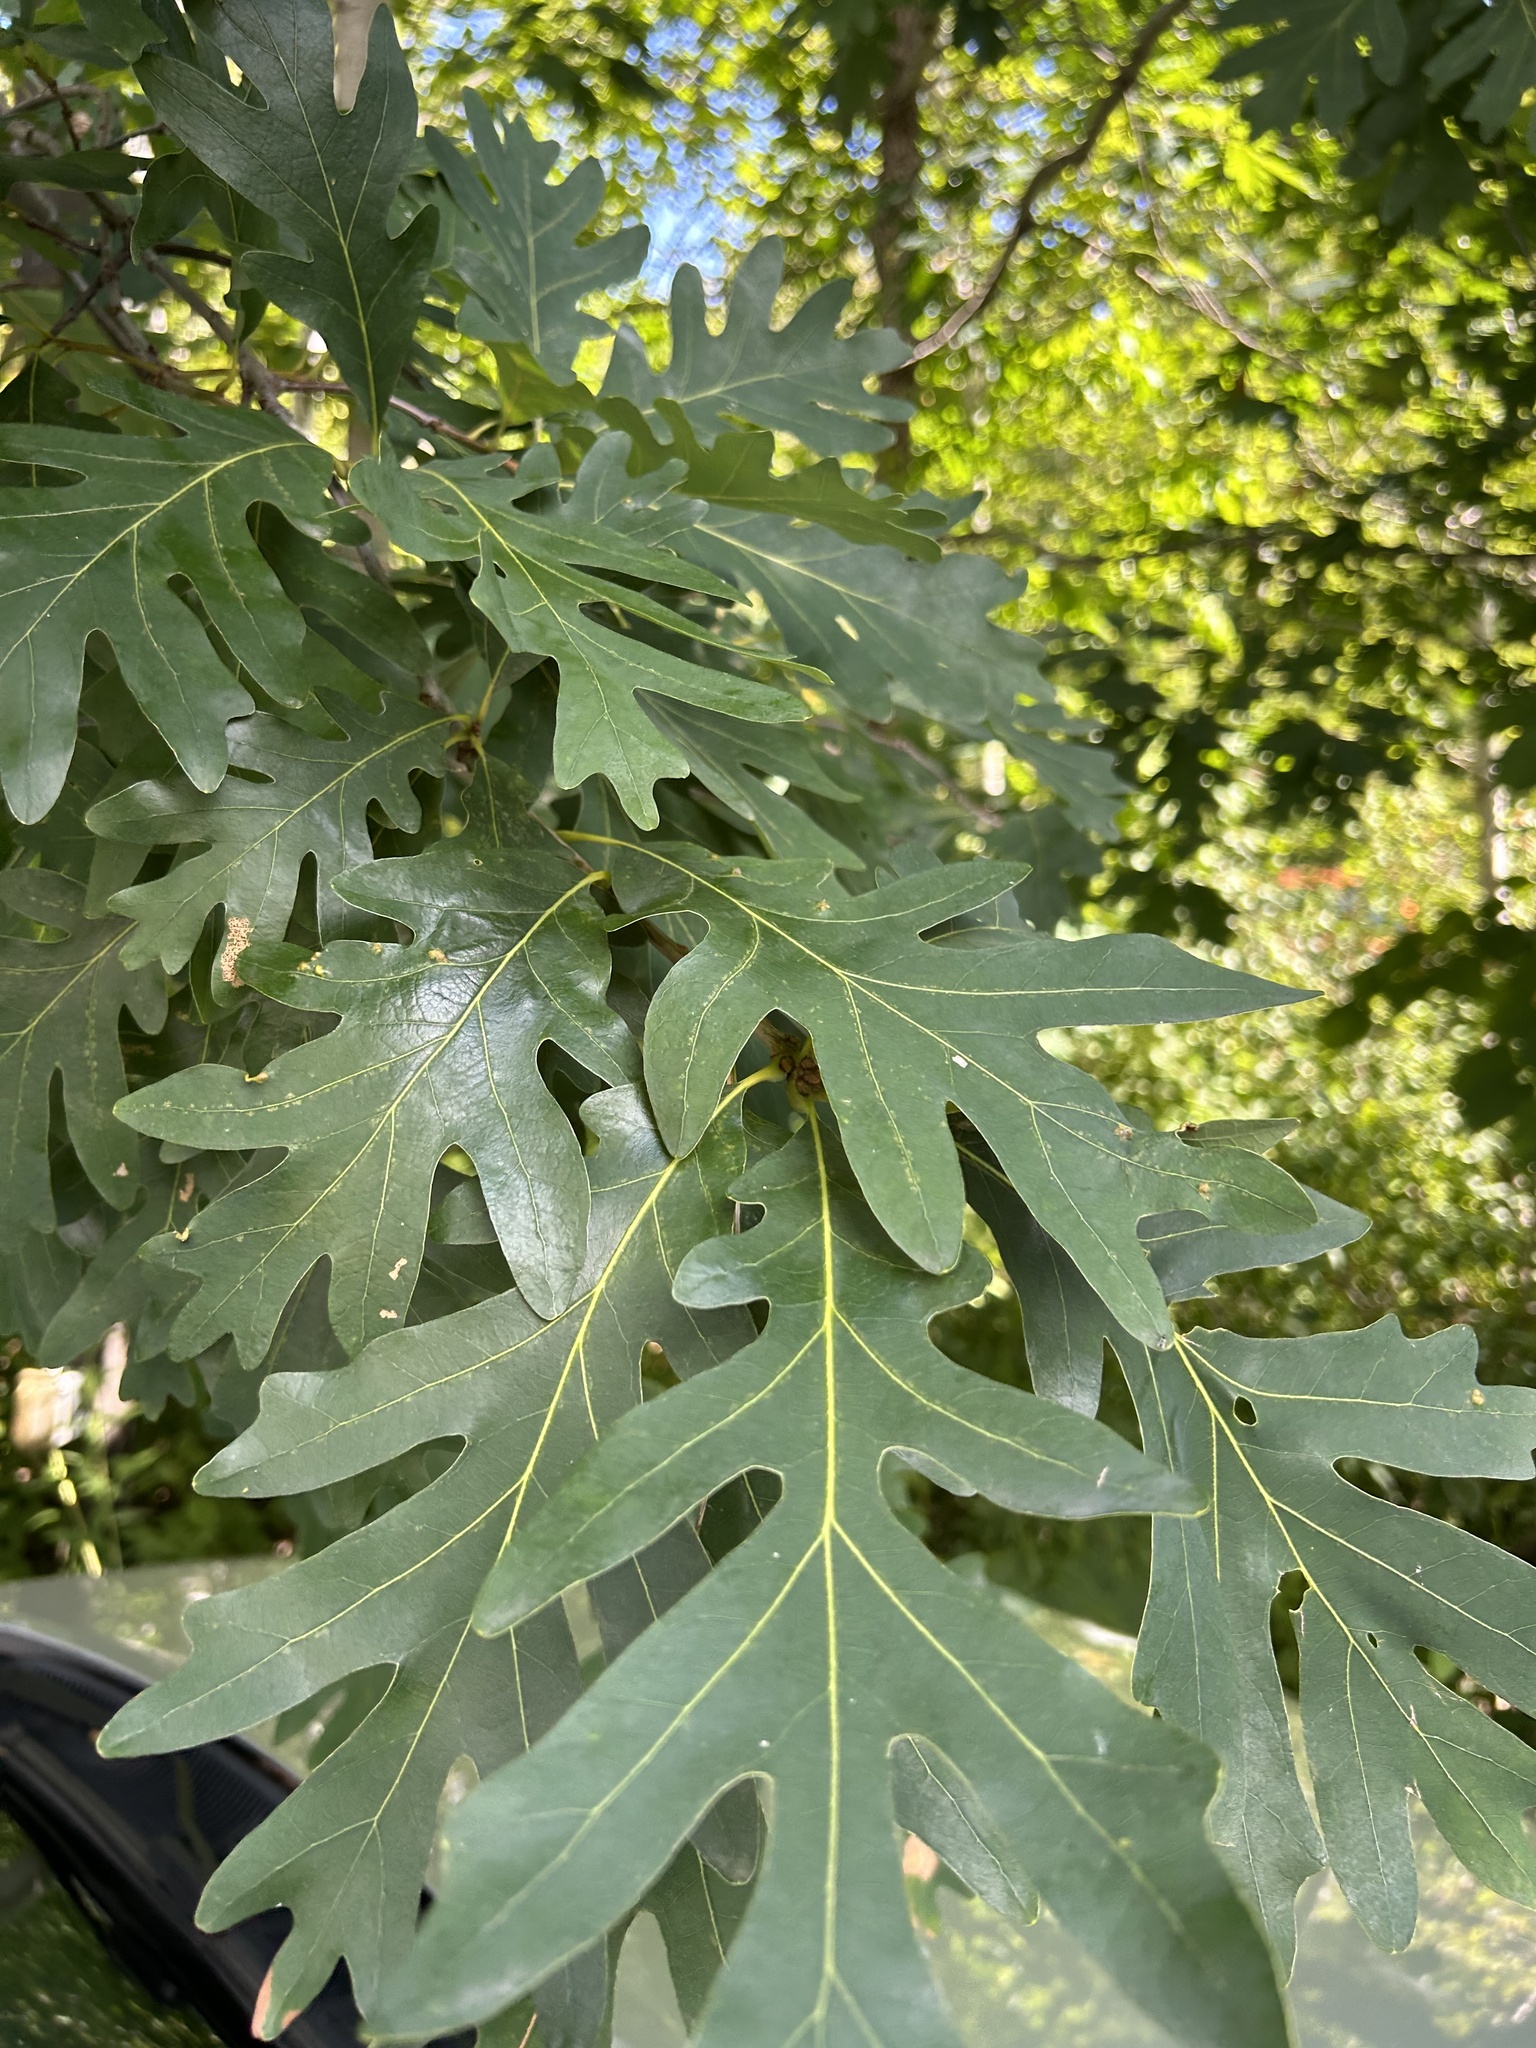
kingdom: Plantae
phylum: Tracheophyta
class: Magnoliopsida
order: Fagales
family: Fagaceae
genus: Quercus
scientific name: Quercus alba
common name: White oak
